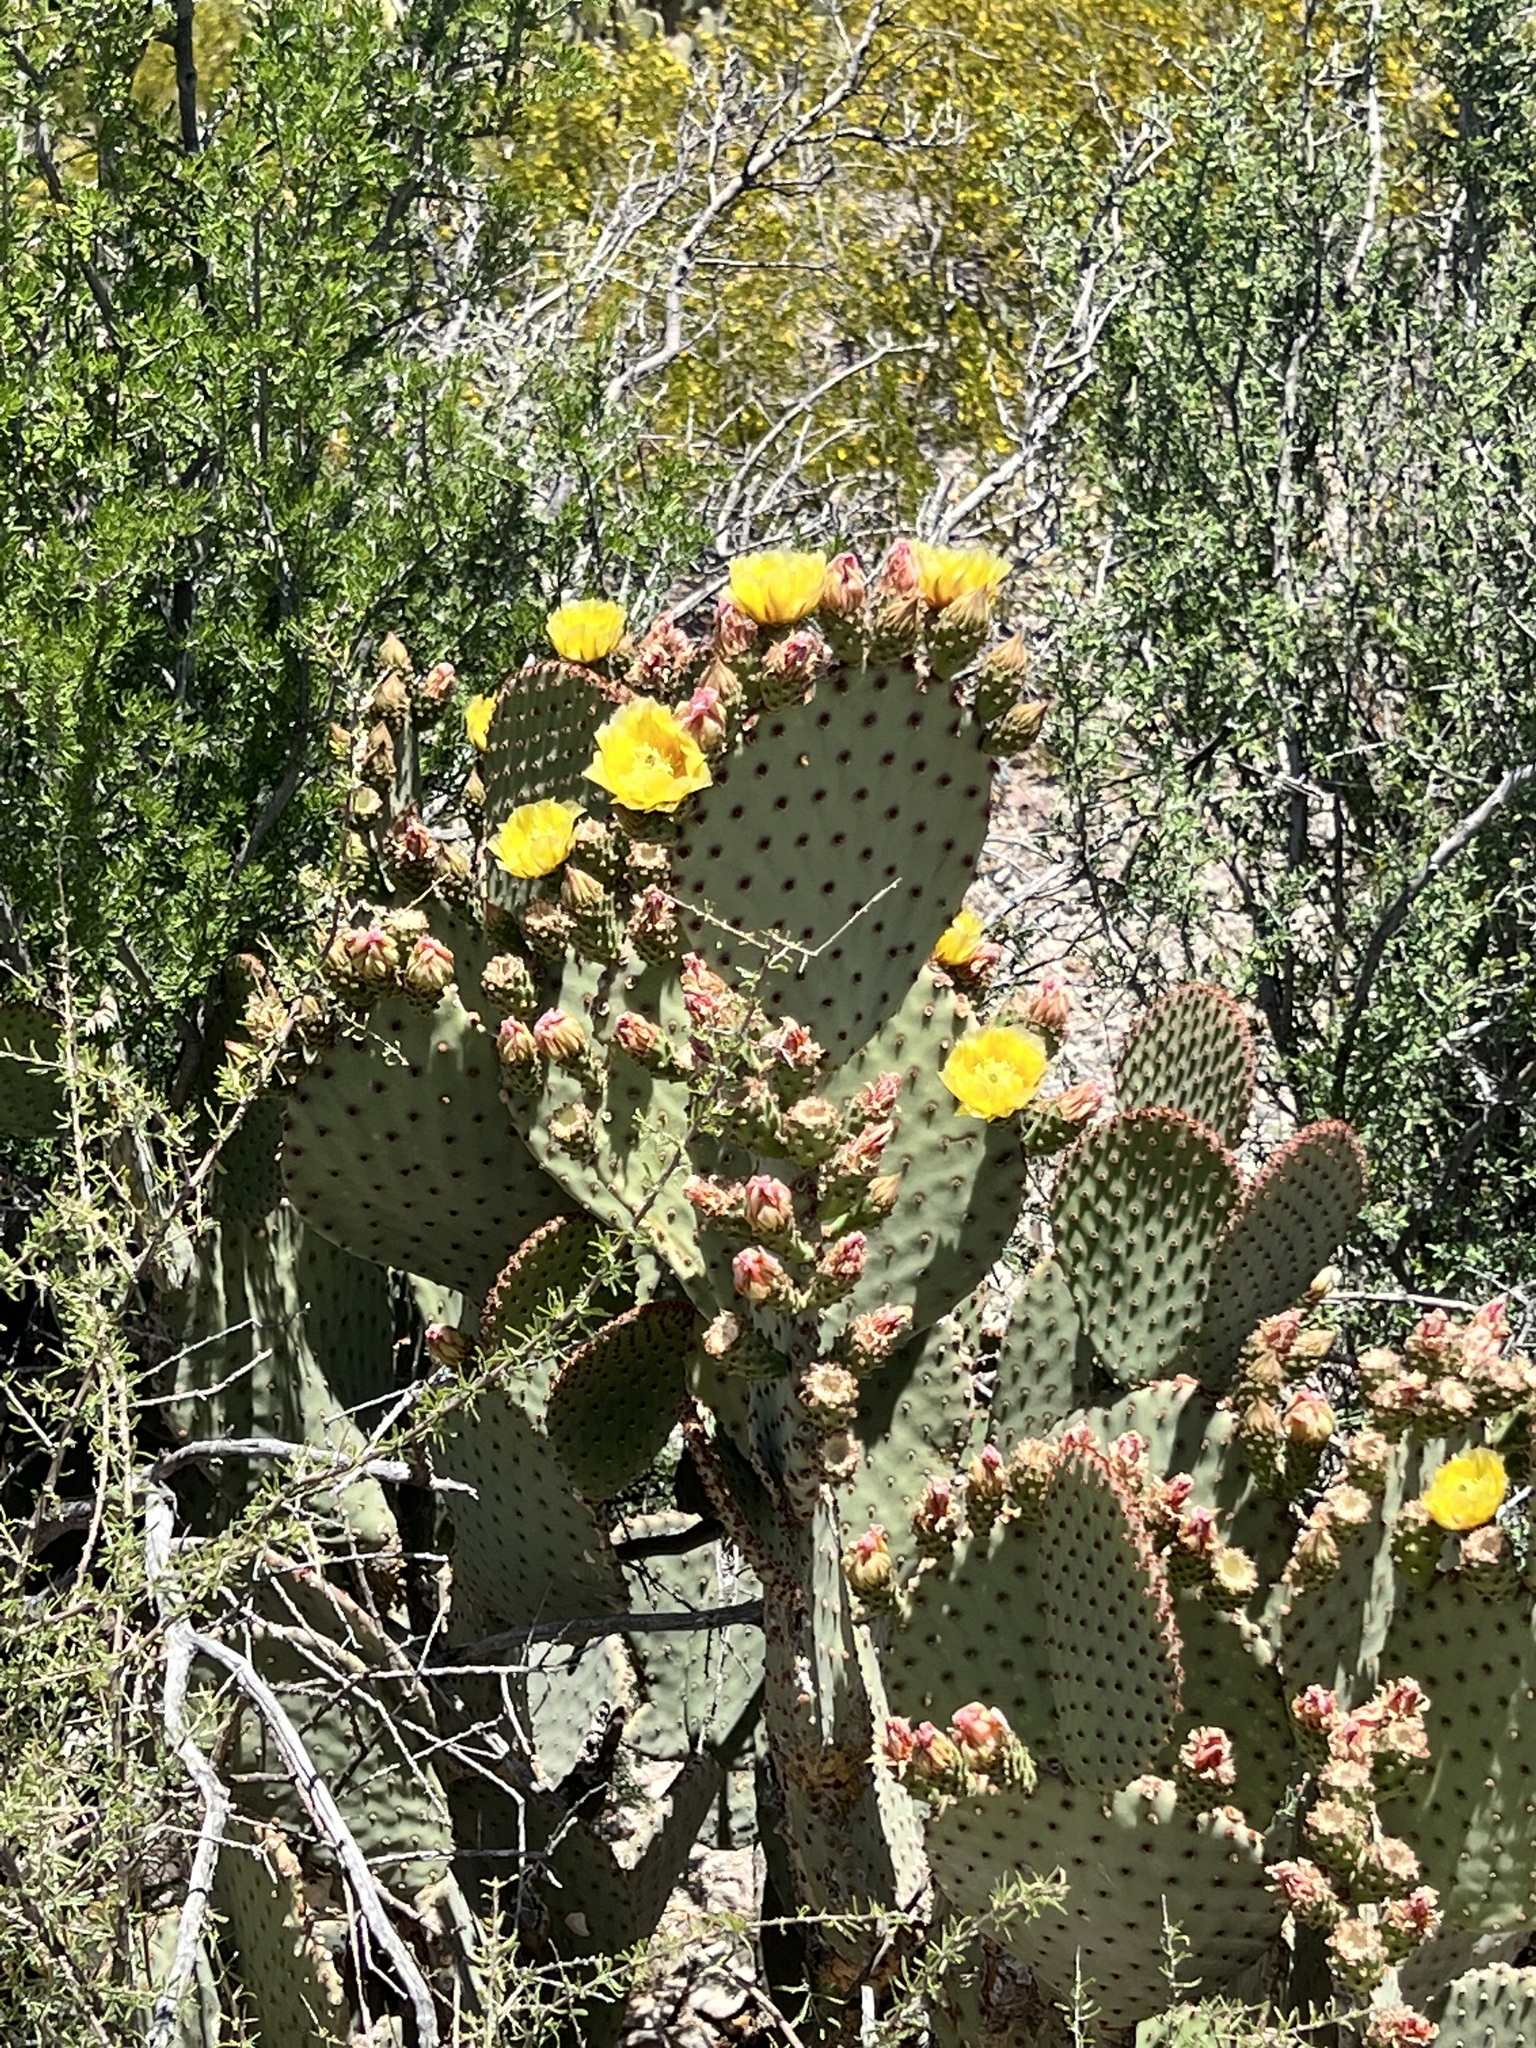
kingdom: Plantae
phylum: Tracheophyta
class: Magnoliopsida
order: Caryophyllales
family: Cactaceae
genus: Opuntia
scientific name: Opuntia rufida
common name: Blind pricklypear
